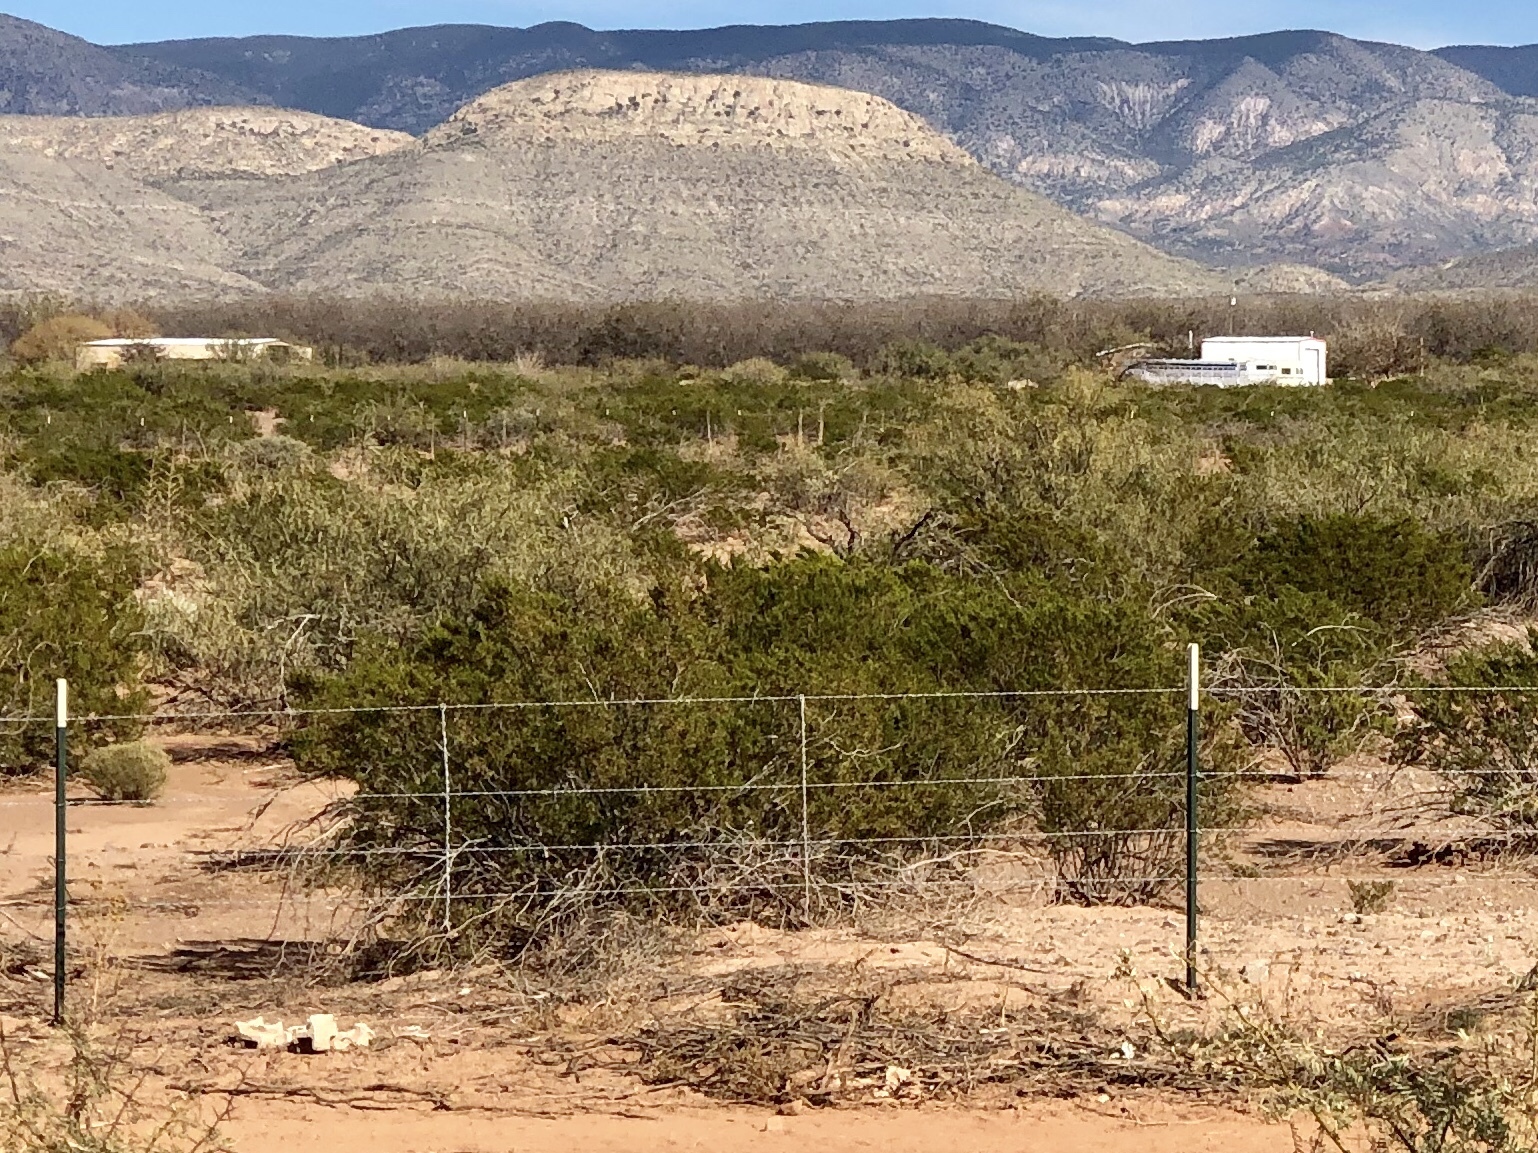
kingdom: Plantae
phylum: Tracheophyta
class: Magnoliopsida
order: Zygophyllales
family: Zygophyllaceae
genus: Larrea
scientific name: Larrea tridentata
